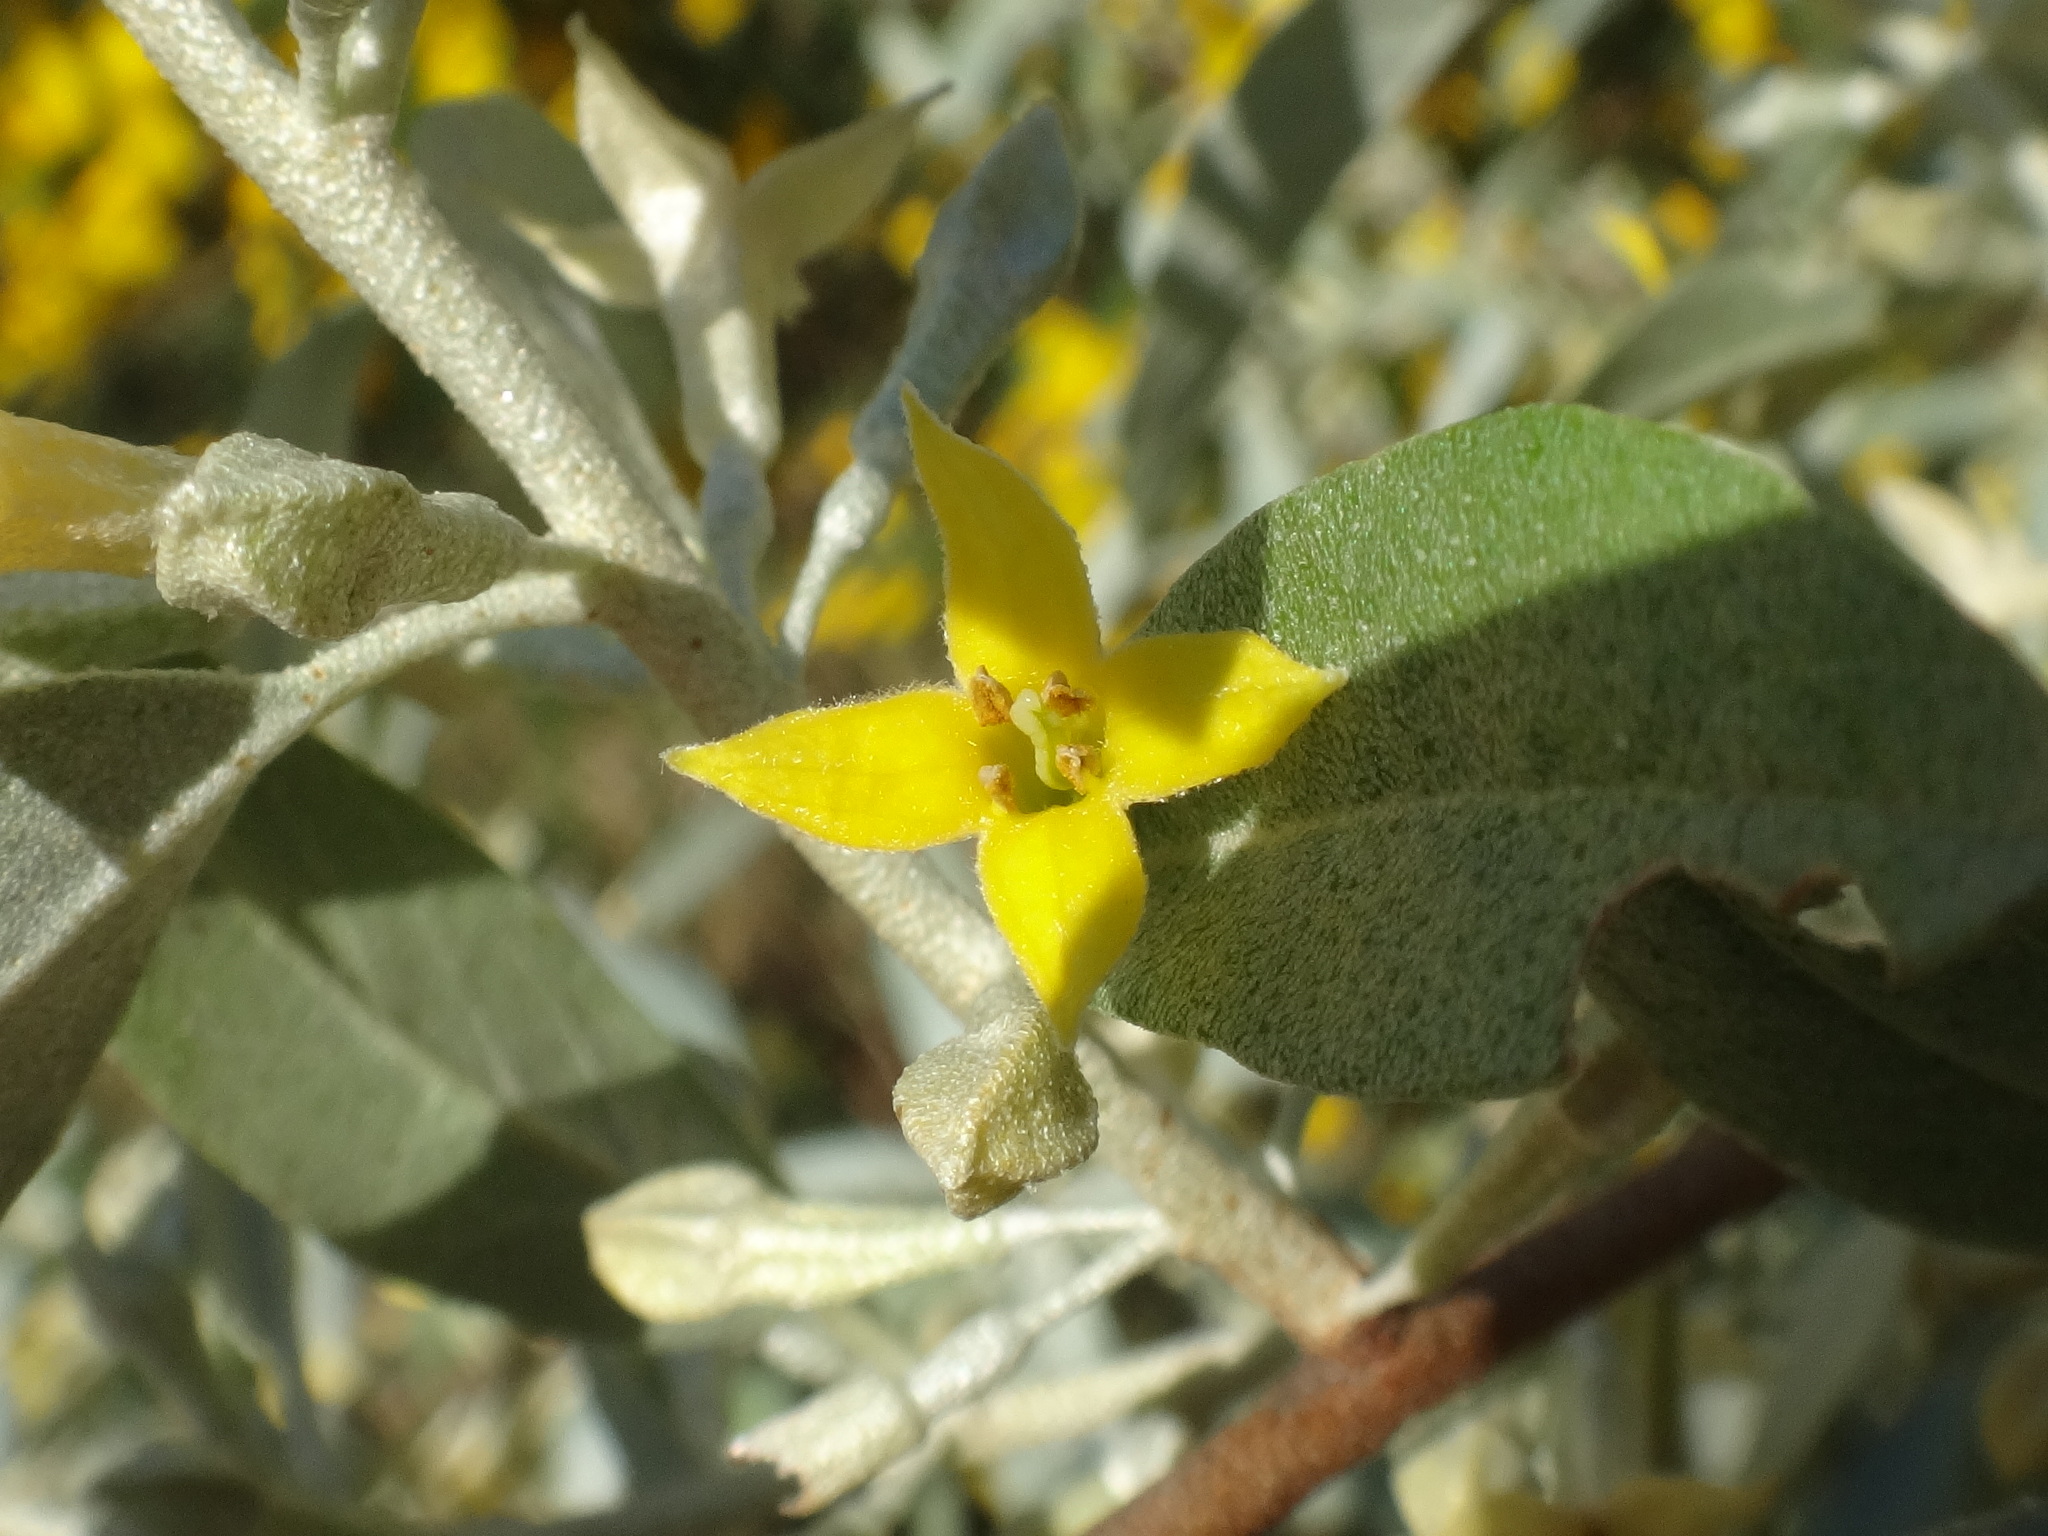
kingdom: Plantae
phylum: Tracheophyta
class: Magnoliopsida
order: Rosales
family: Elaeagnaceae
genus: Elaeagnus
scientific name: Elaeagnus angustifolia
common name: Russian olive
